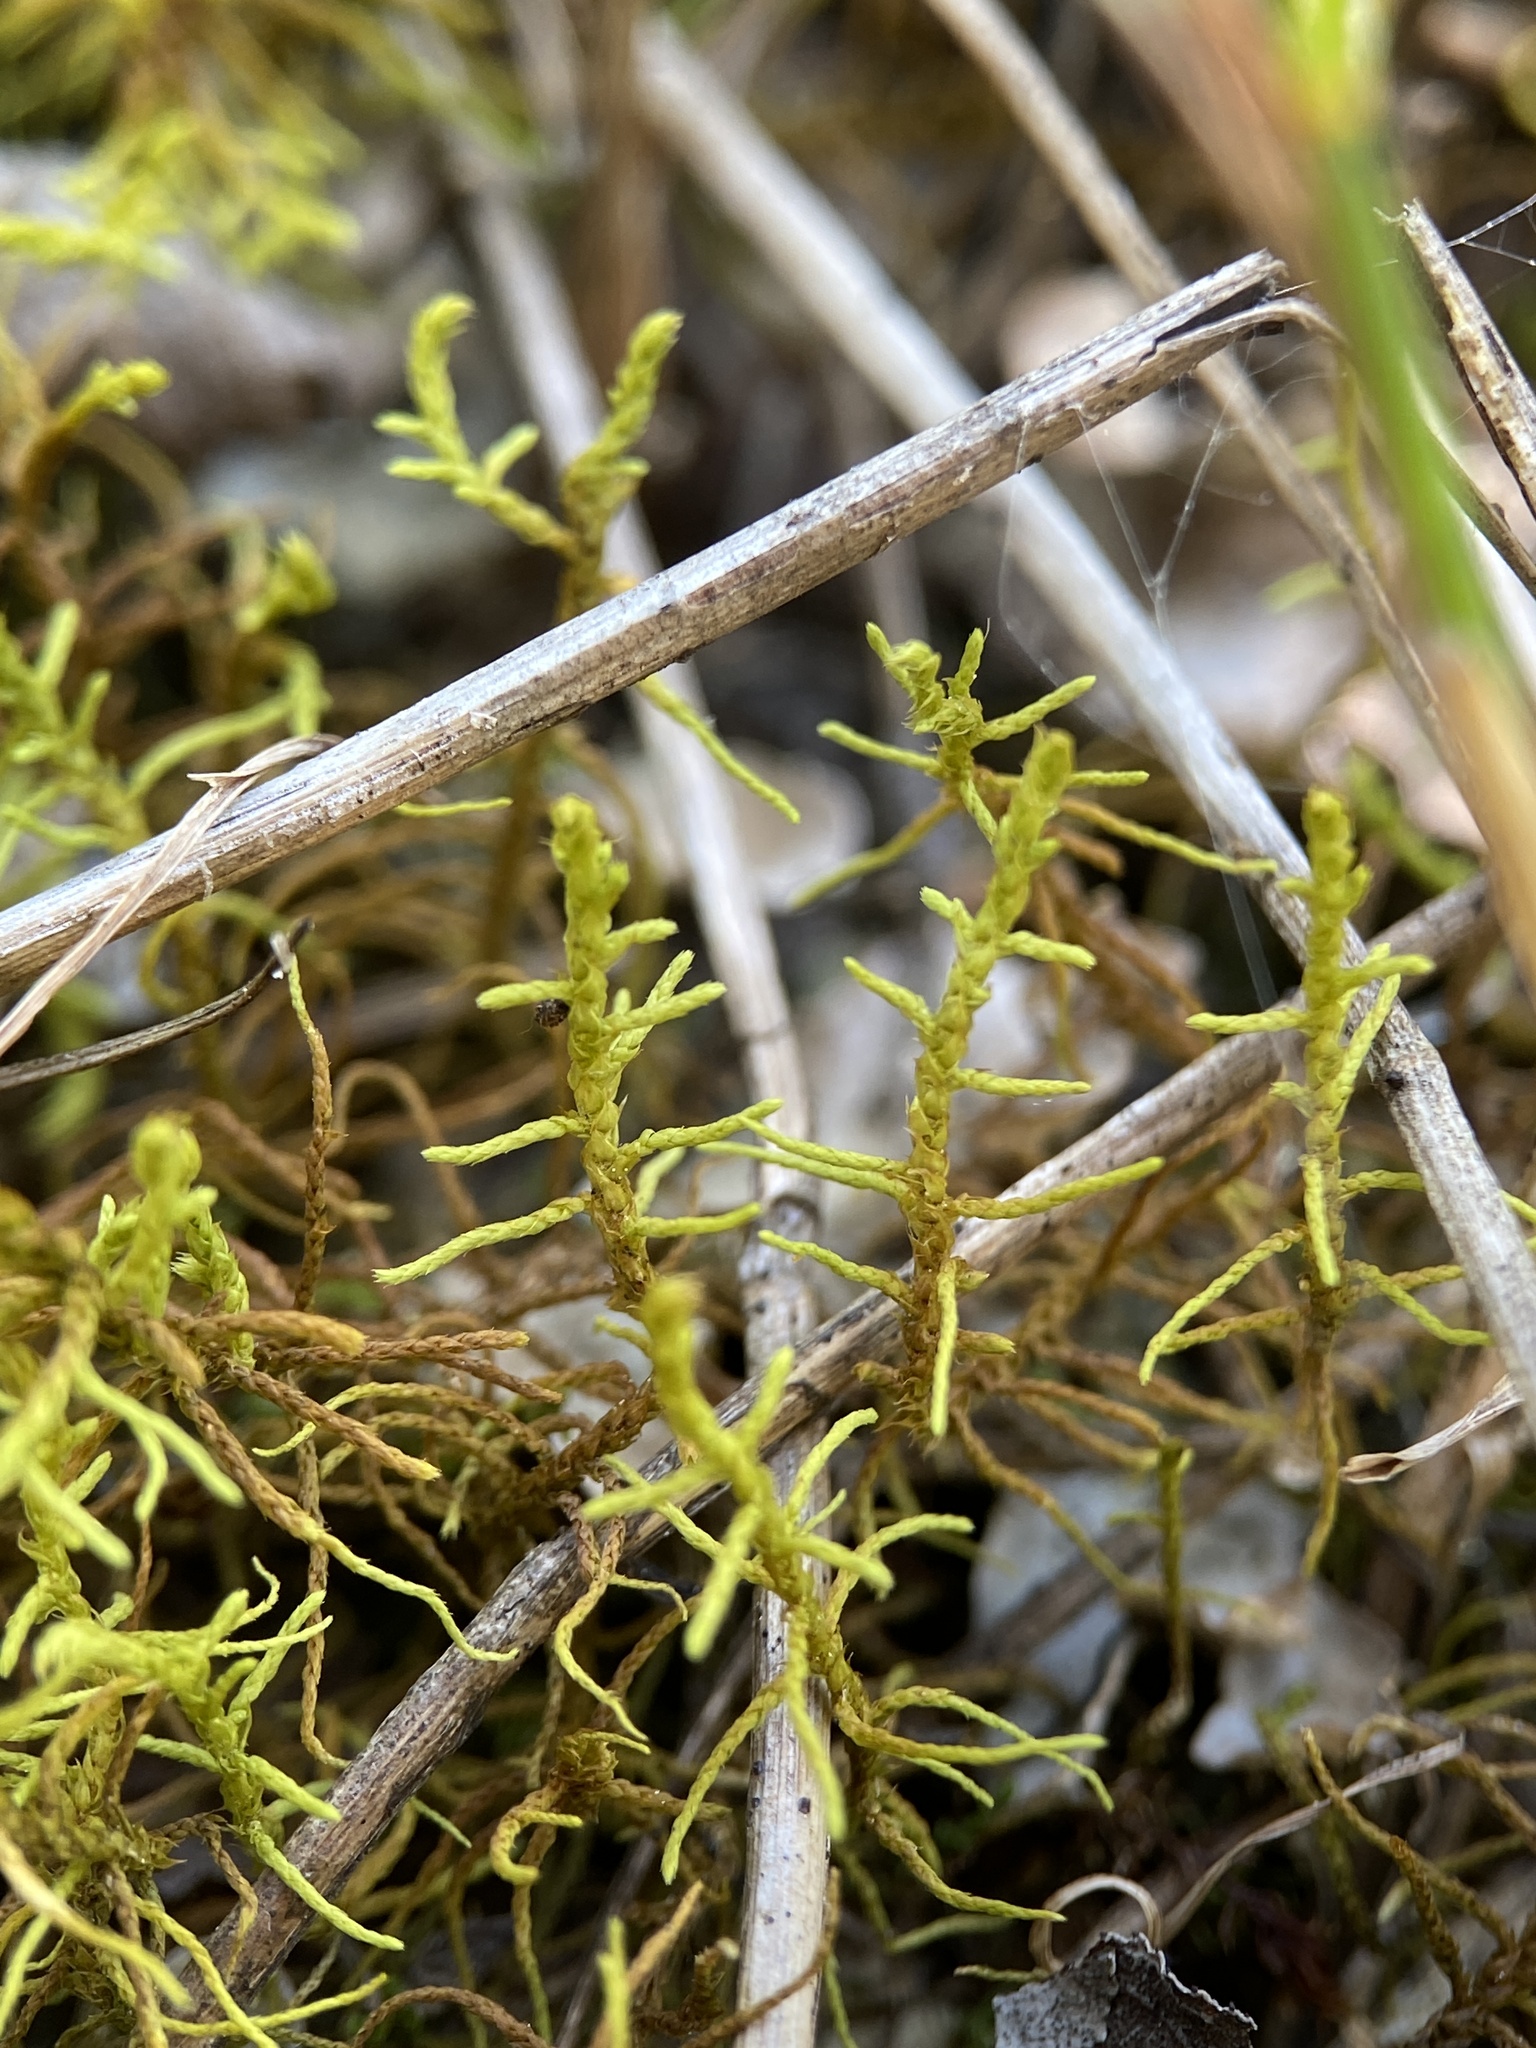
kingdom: Plantae
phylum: Bryophyta
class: Bryopsida
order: Hypnales
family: Thuidiaceae
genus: Abietinella
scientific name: Abietinella abietina
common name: Wiry fern moss
